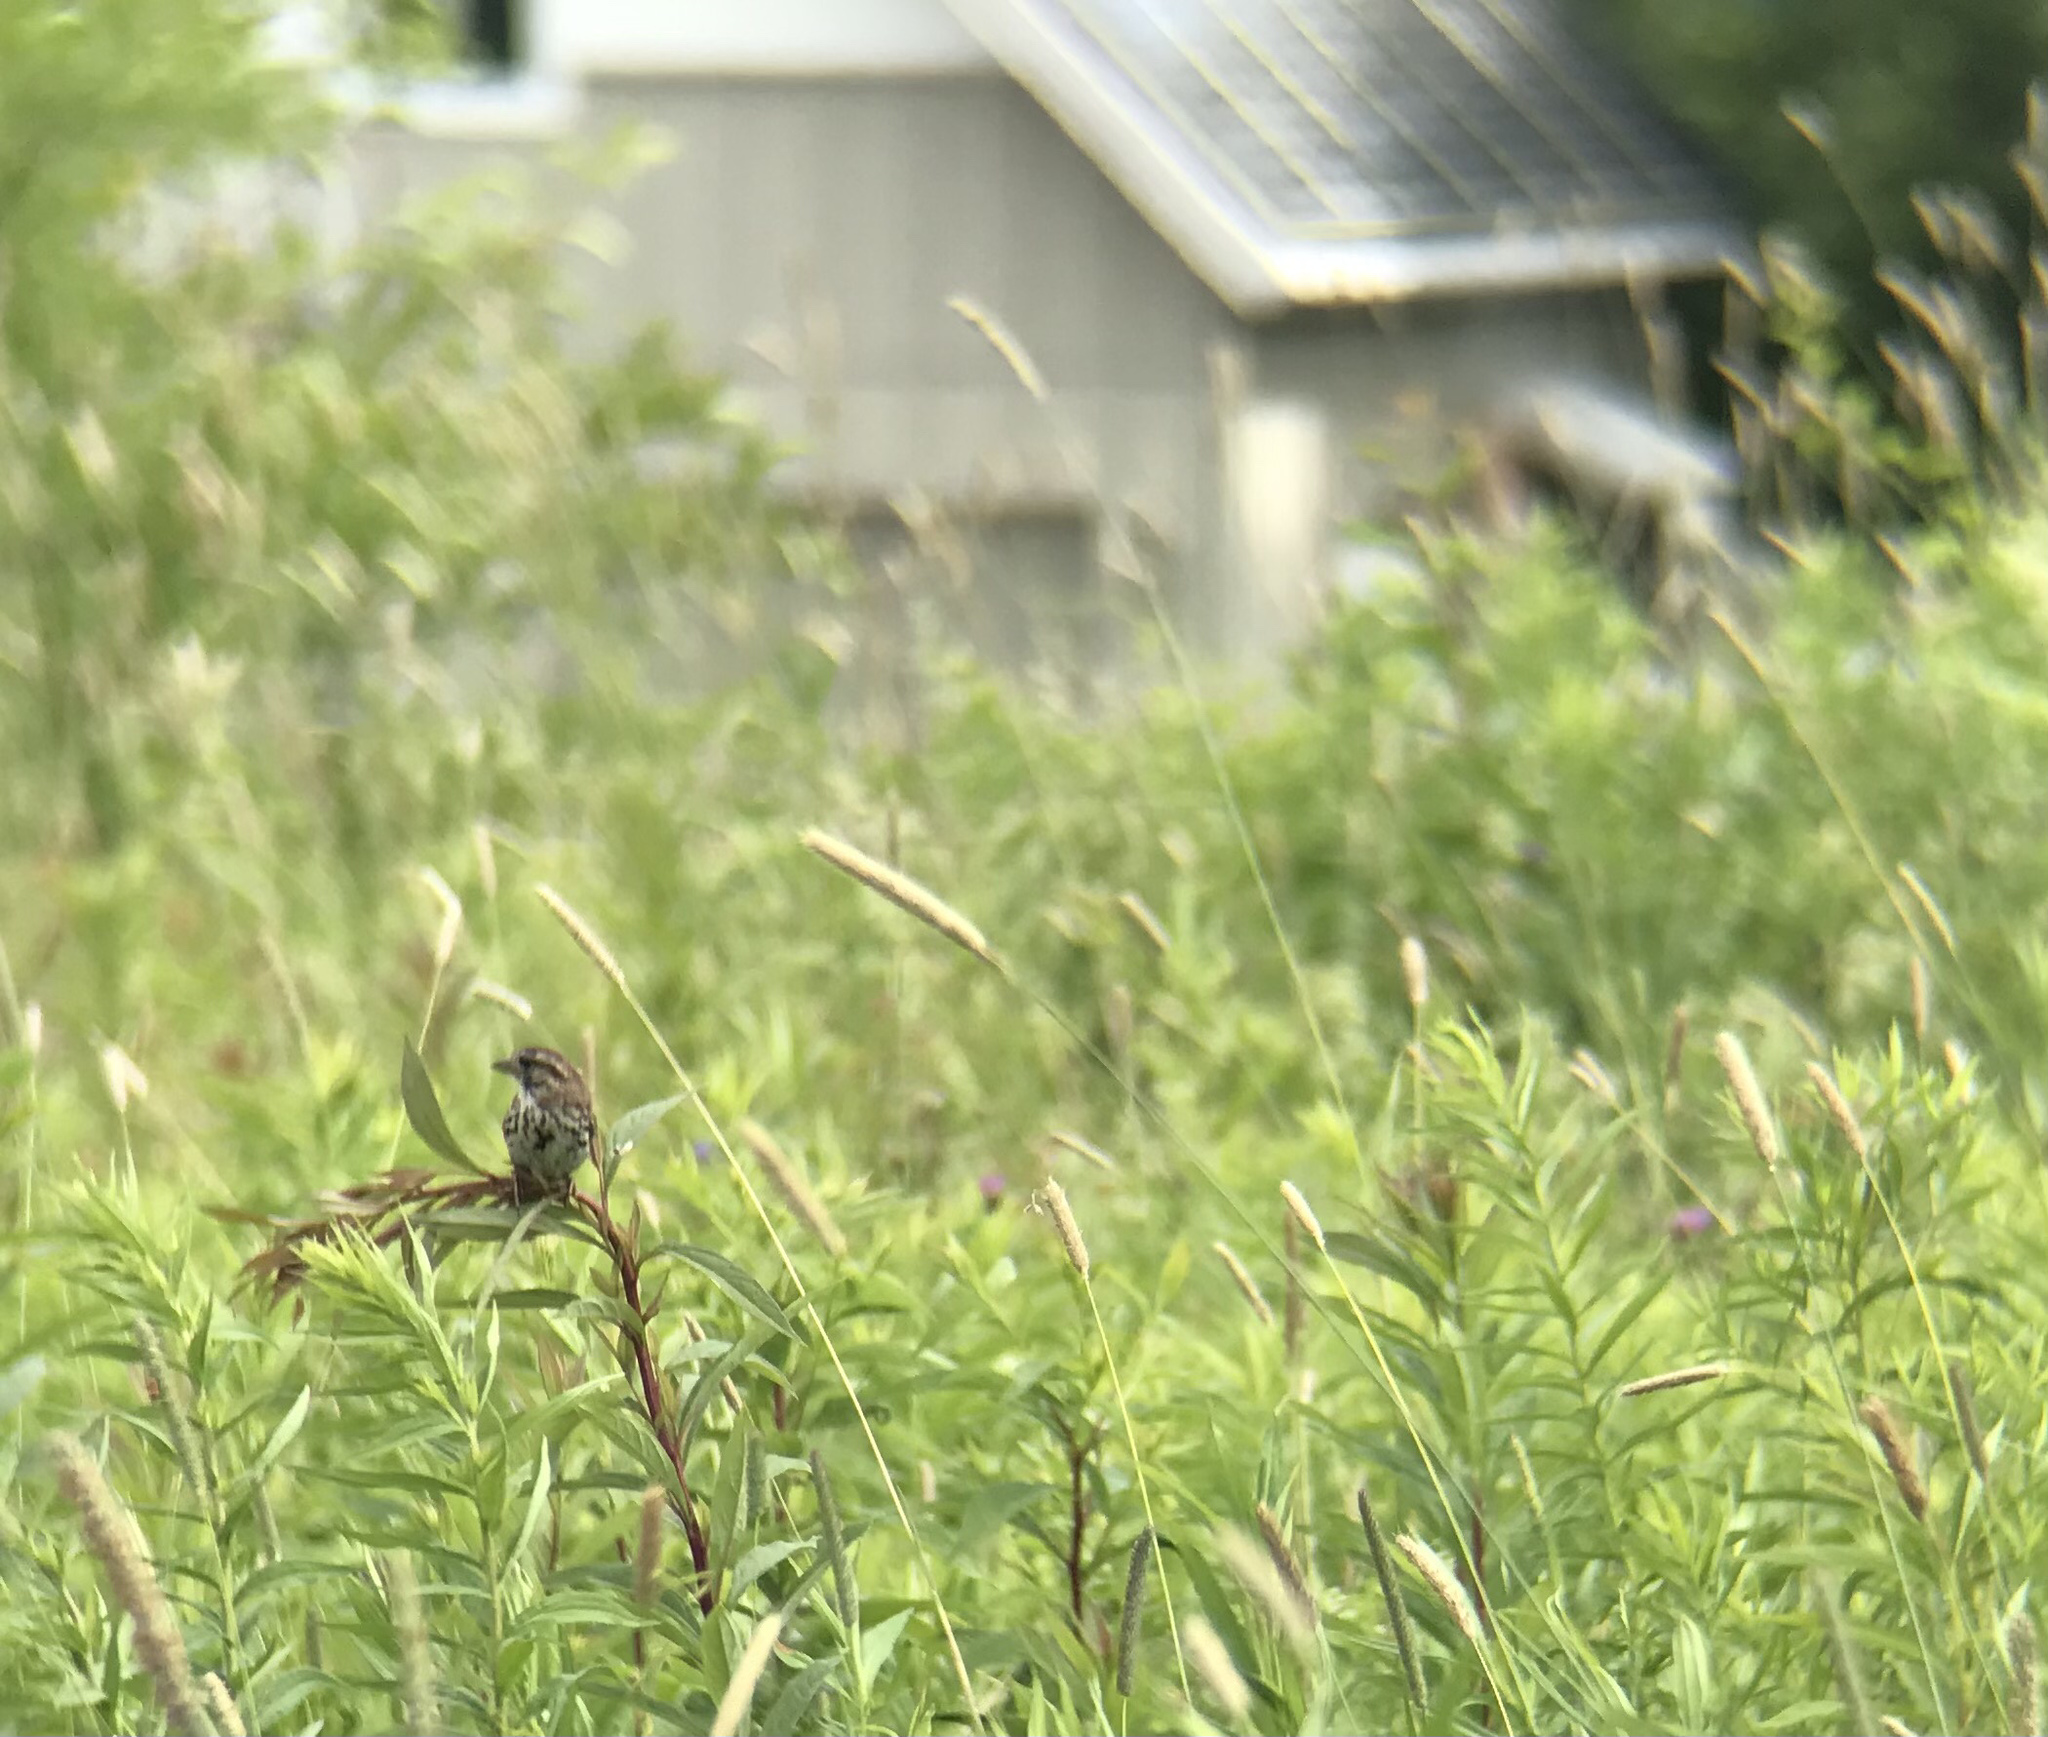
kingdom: Animalia
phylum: Chordata
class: Aves
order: Passeriformes
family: Passerellidae
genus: Melospiza
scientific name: Melospiza melodia
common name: Song sparrow
